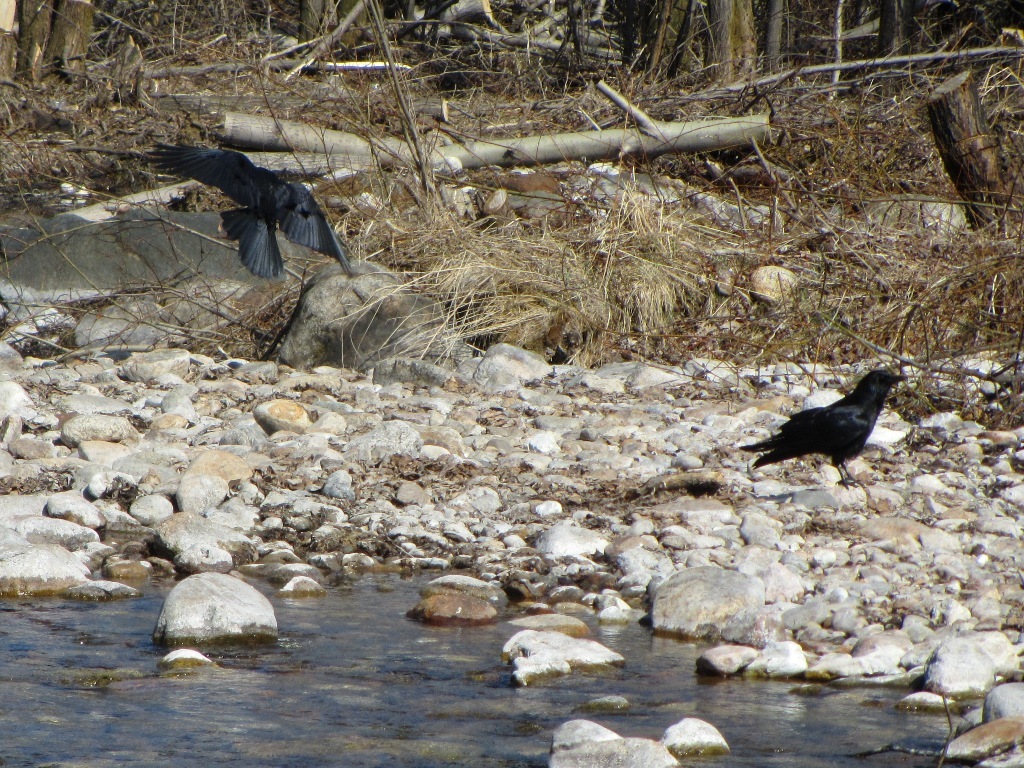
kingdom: Animalia
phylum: Chordata
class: Aves
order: Passeriformes
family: Corvidae
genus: Corvus
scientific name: Corvus corone
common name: Carrion crow
